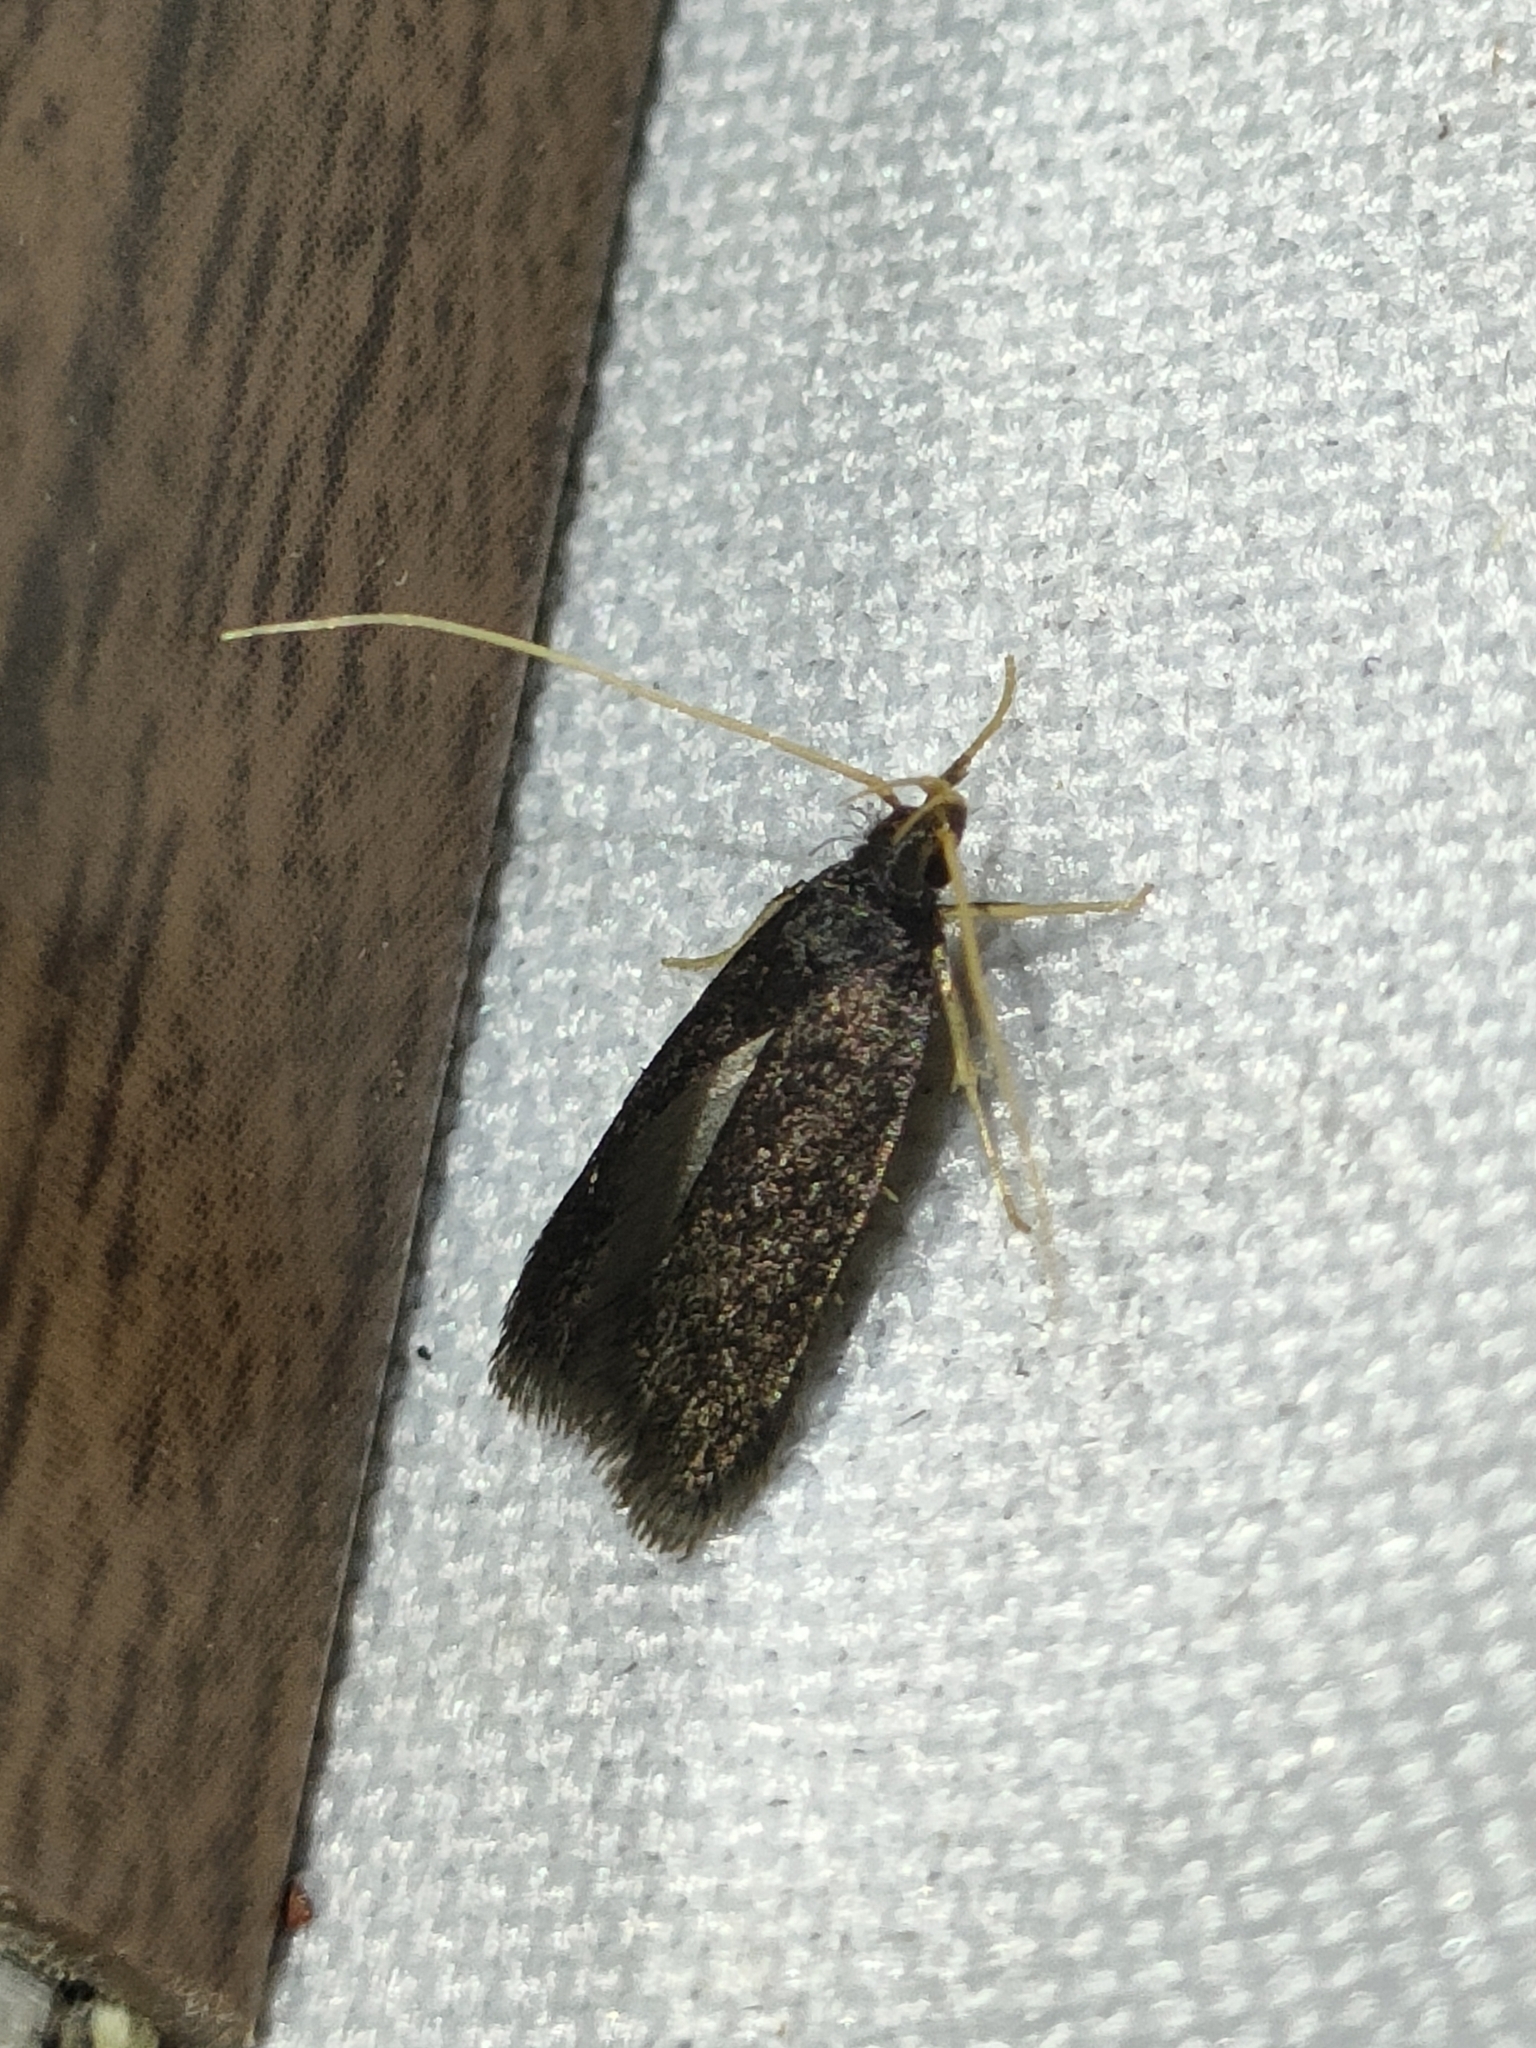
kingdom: Animalia
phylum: Arthropoda
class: Insecta
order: Lepidoptera
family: Lecithoceridae
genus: Homaloxestis
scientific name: Homaloxestis briantiella
